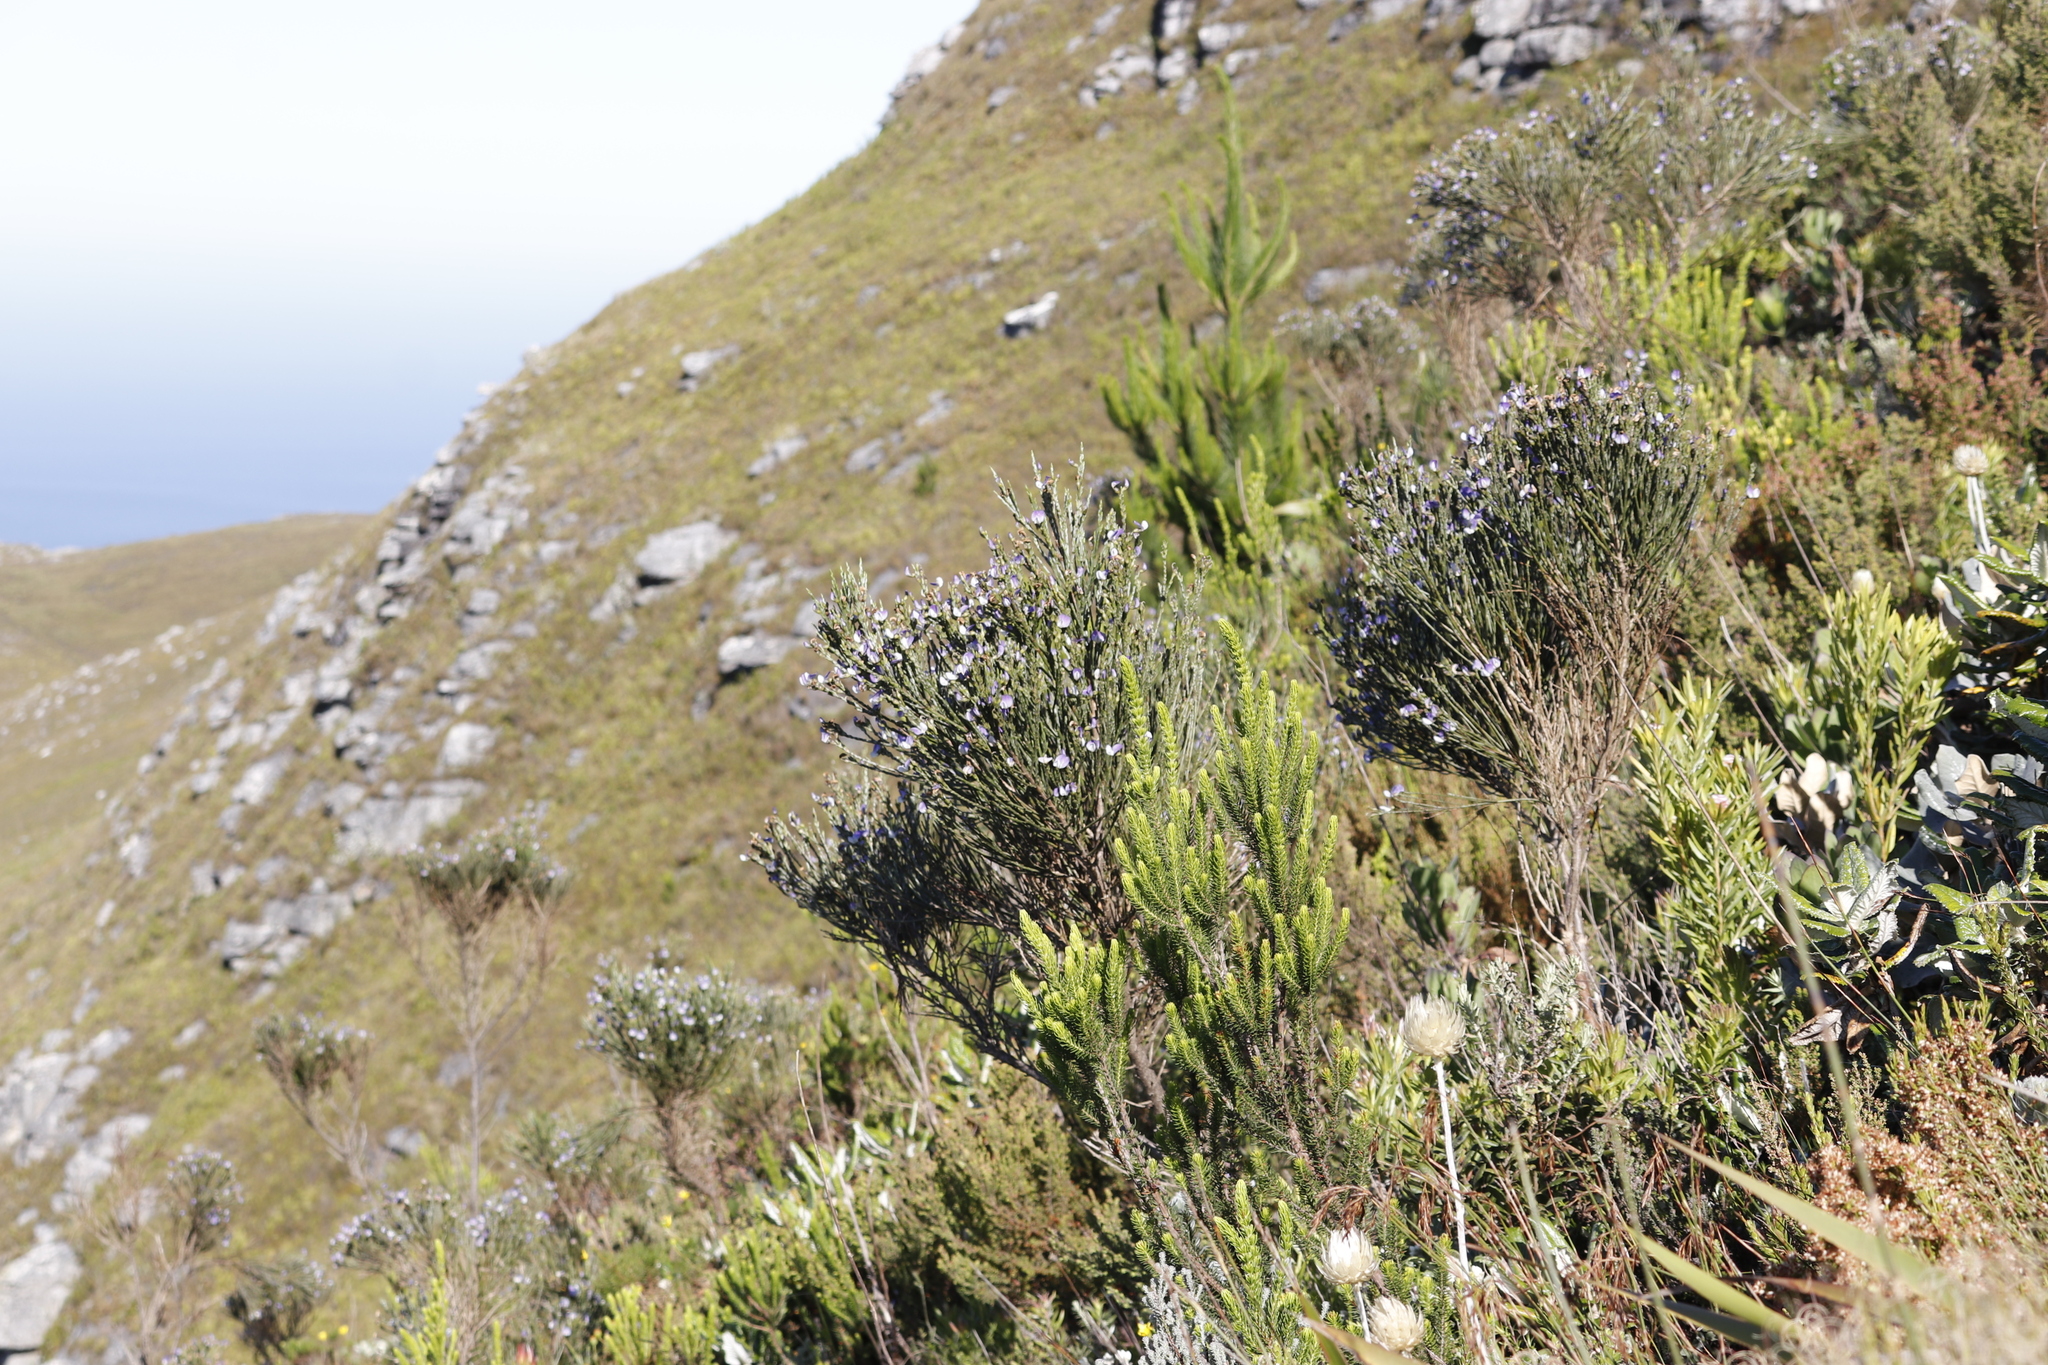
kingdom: Plantae
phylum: Tracheophyta
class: Magnoliopsida
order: Fabales
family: Fabaceae
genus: Psoralea
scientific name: Psoralea congesta
